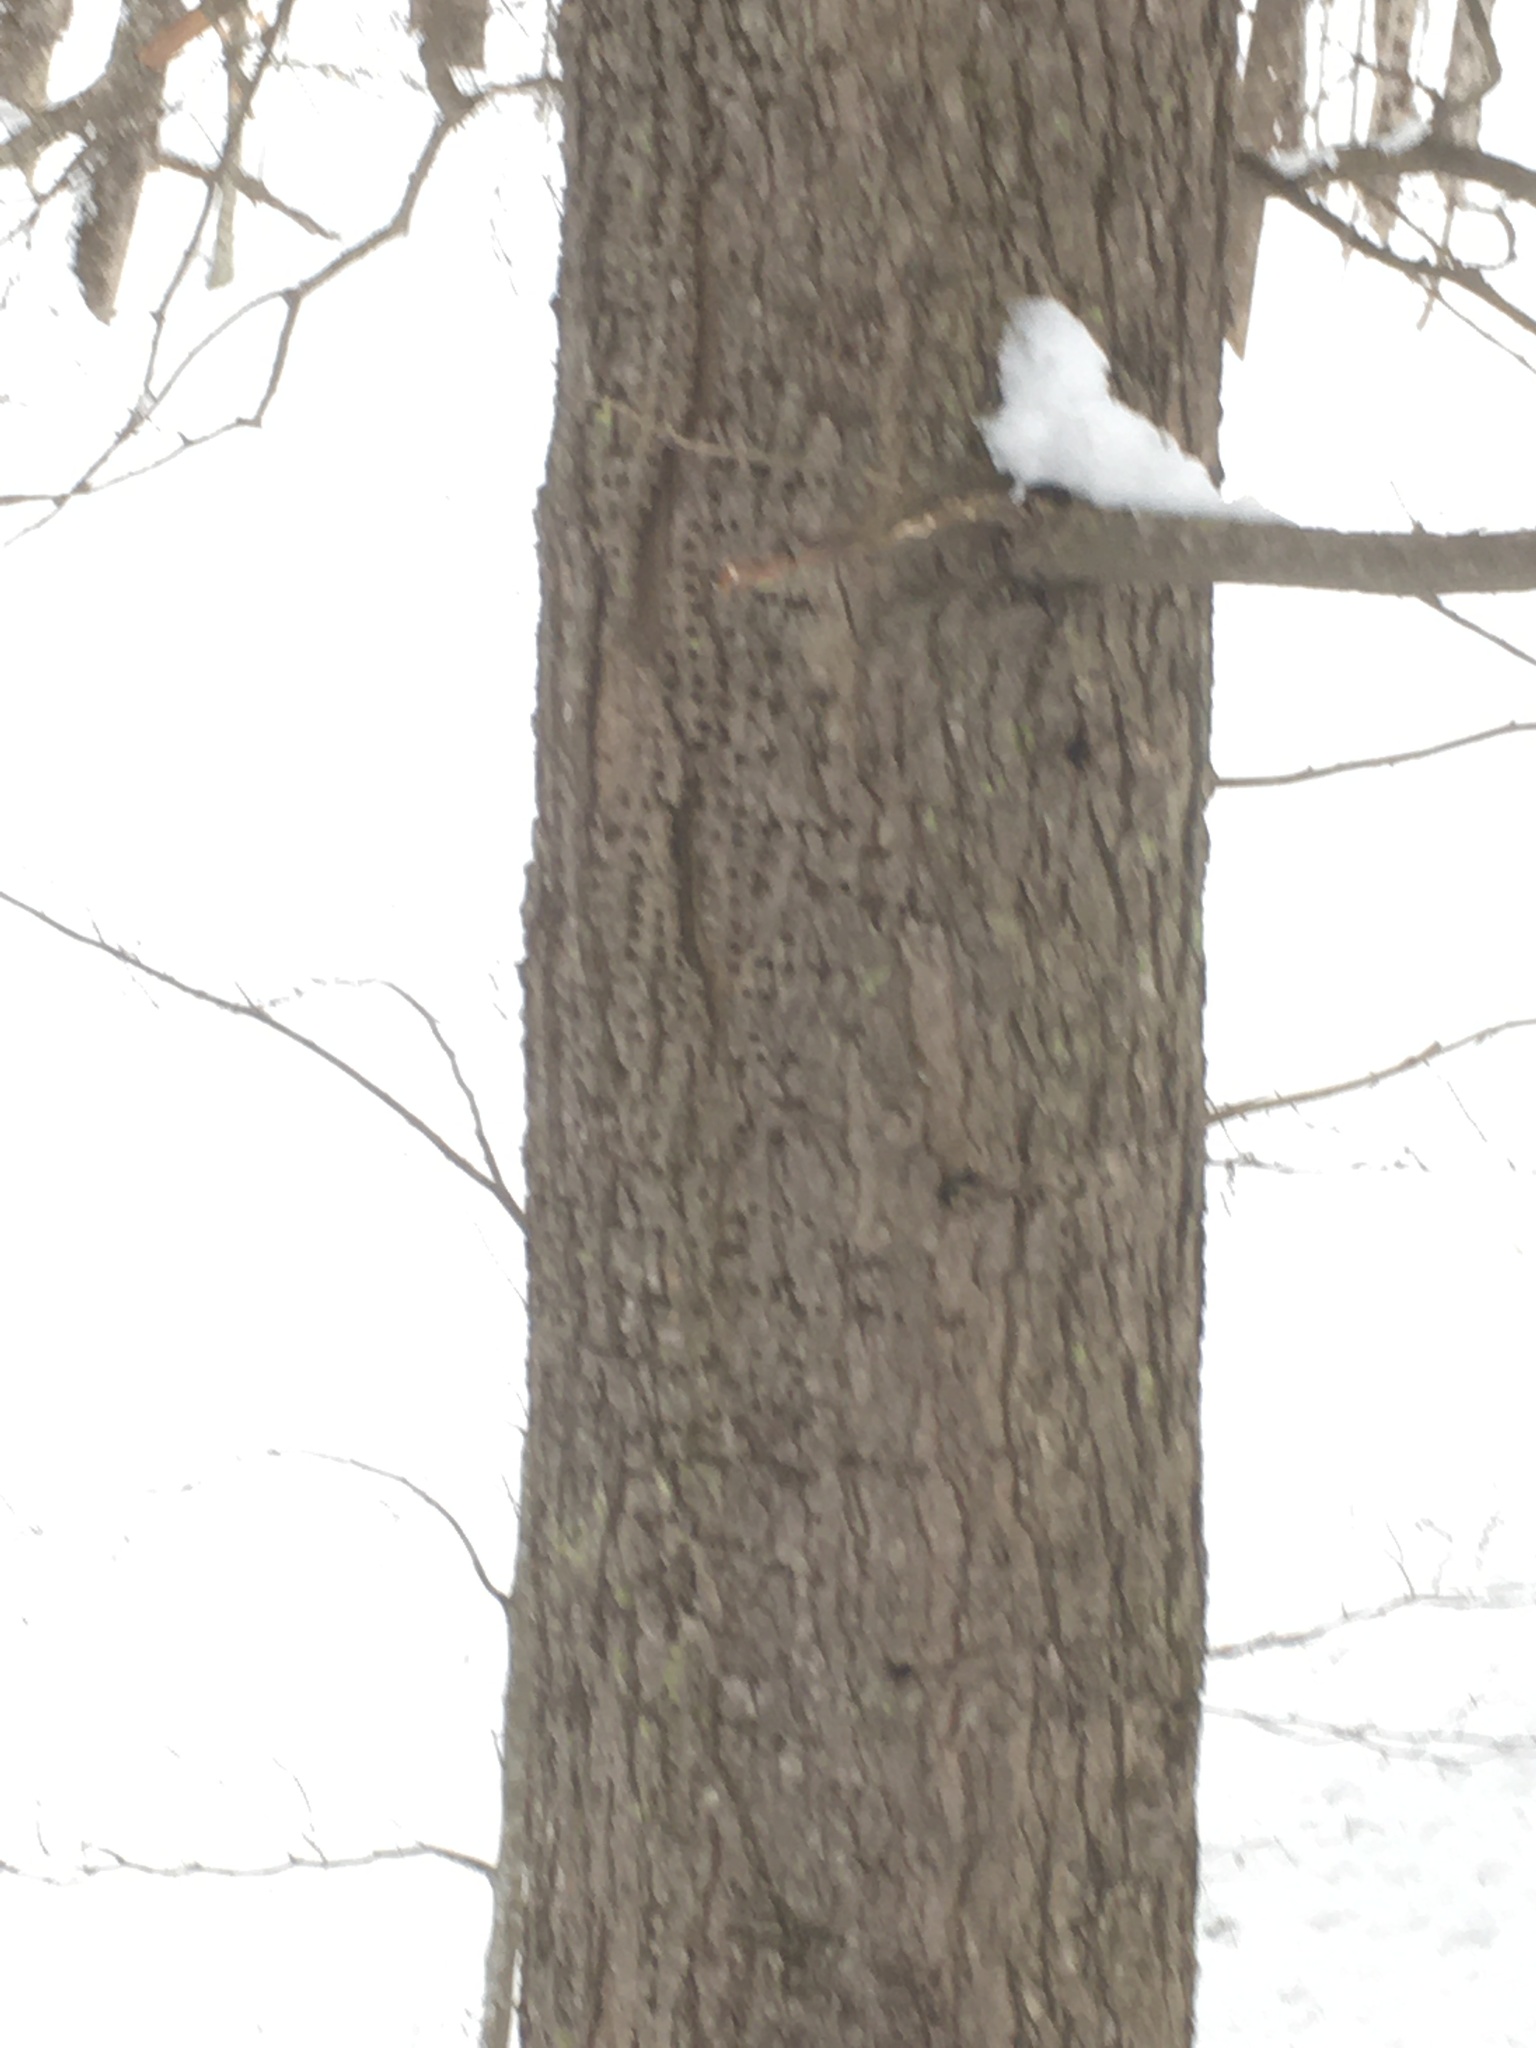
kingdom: Animalia
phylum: Chordata
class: Aves
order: Piciformes
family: Picidae
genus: Sphyrapicus
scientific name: Sphyrapicus varius
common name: Yellow-bellied sapsucker
